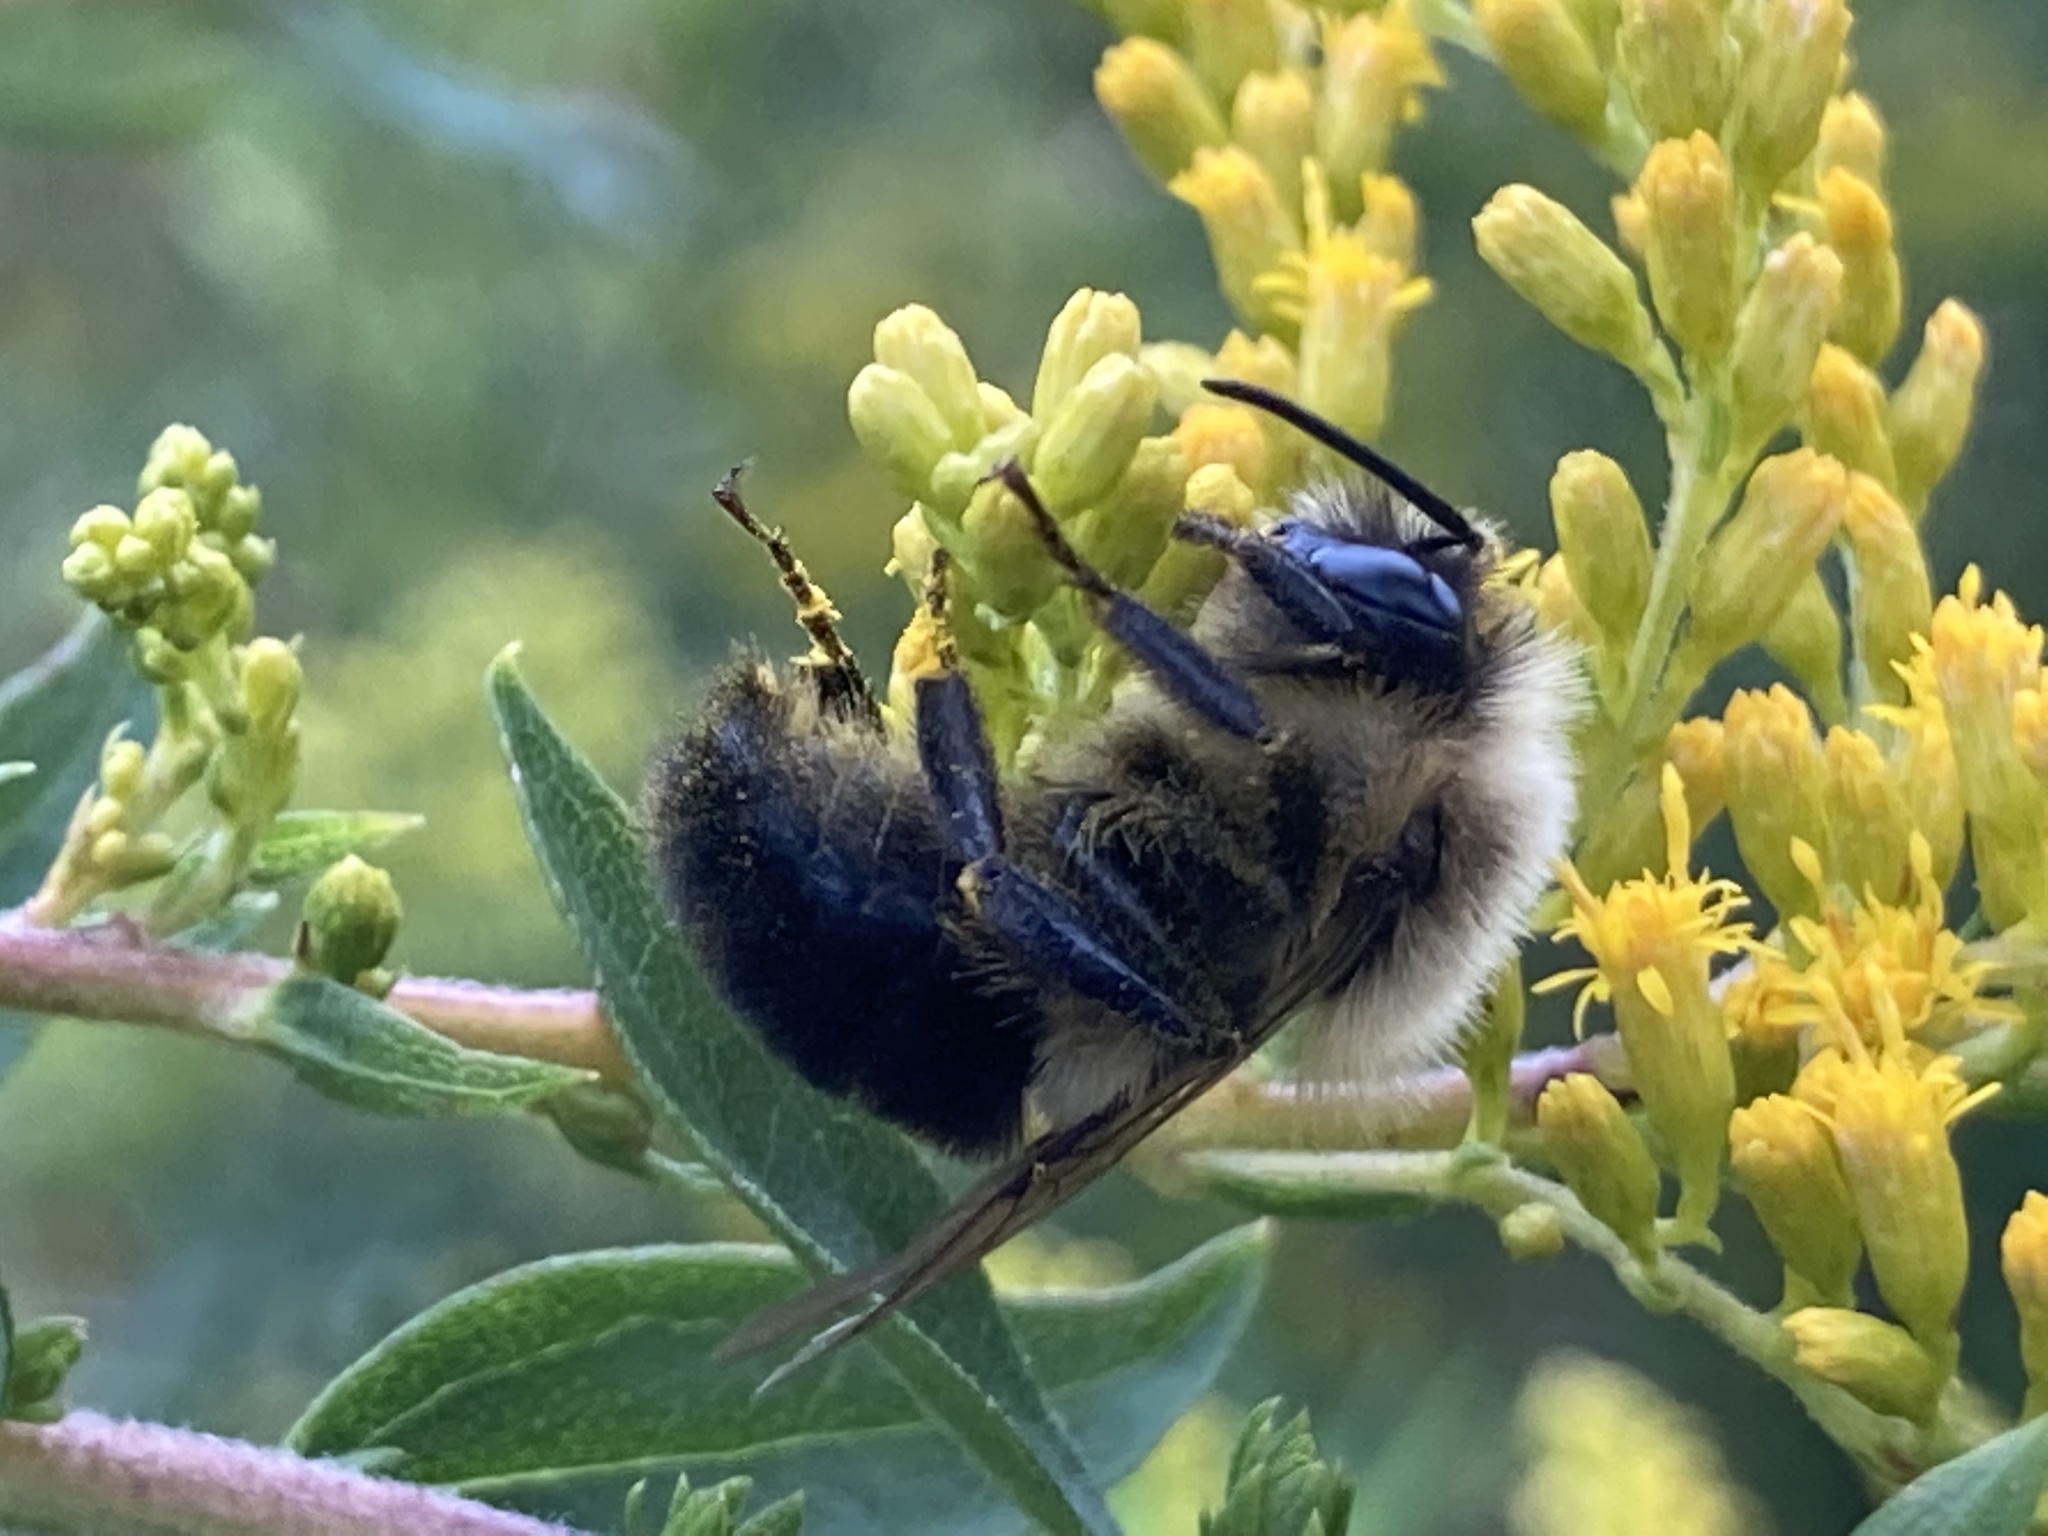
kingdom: Animalia
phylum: Arthropoda
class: Insecta
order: Hymenoptera
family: Apidae
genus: Bombus
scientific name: Bombus impatiens
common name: Common eastern bumble bee
